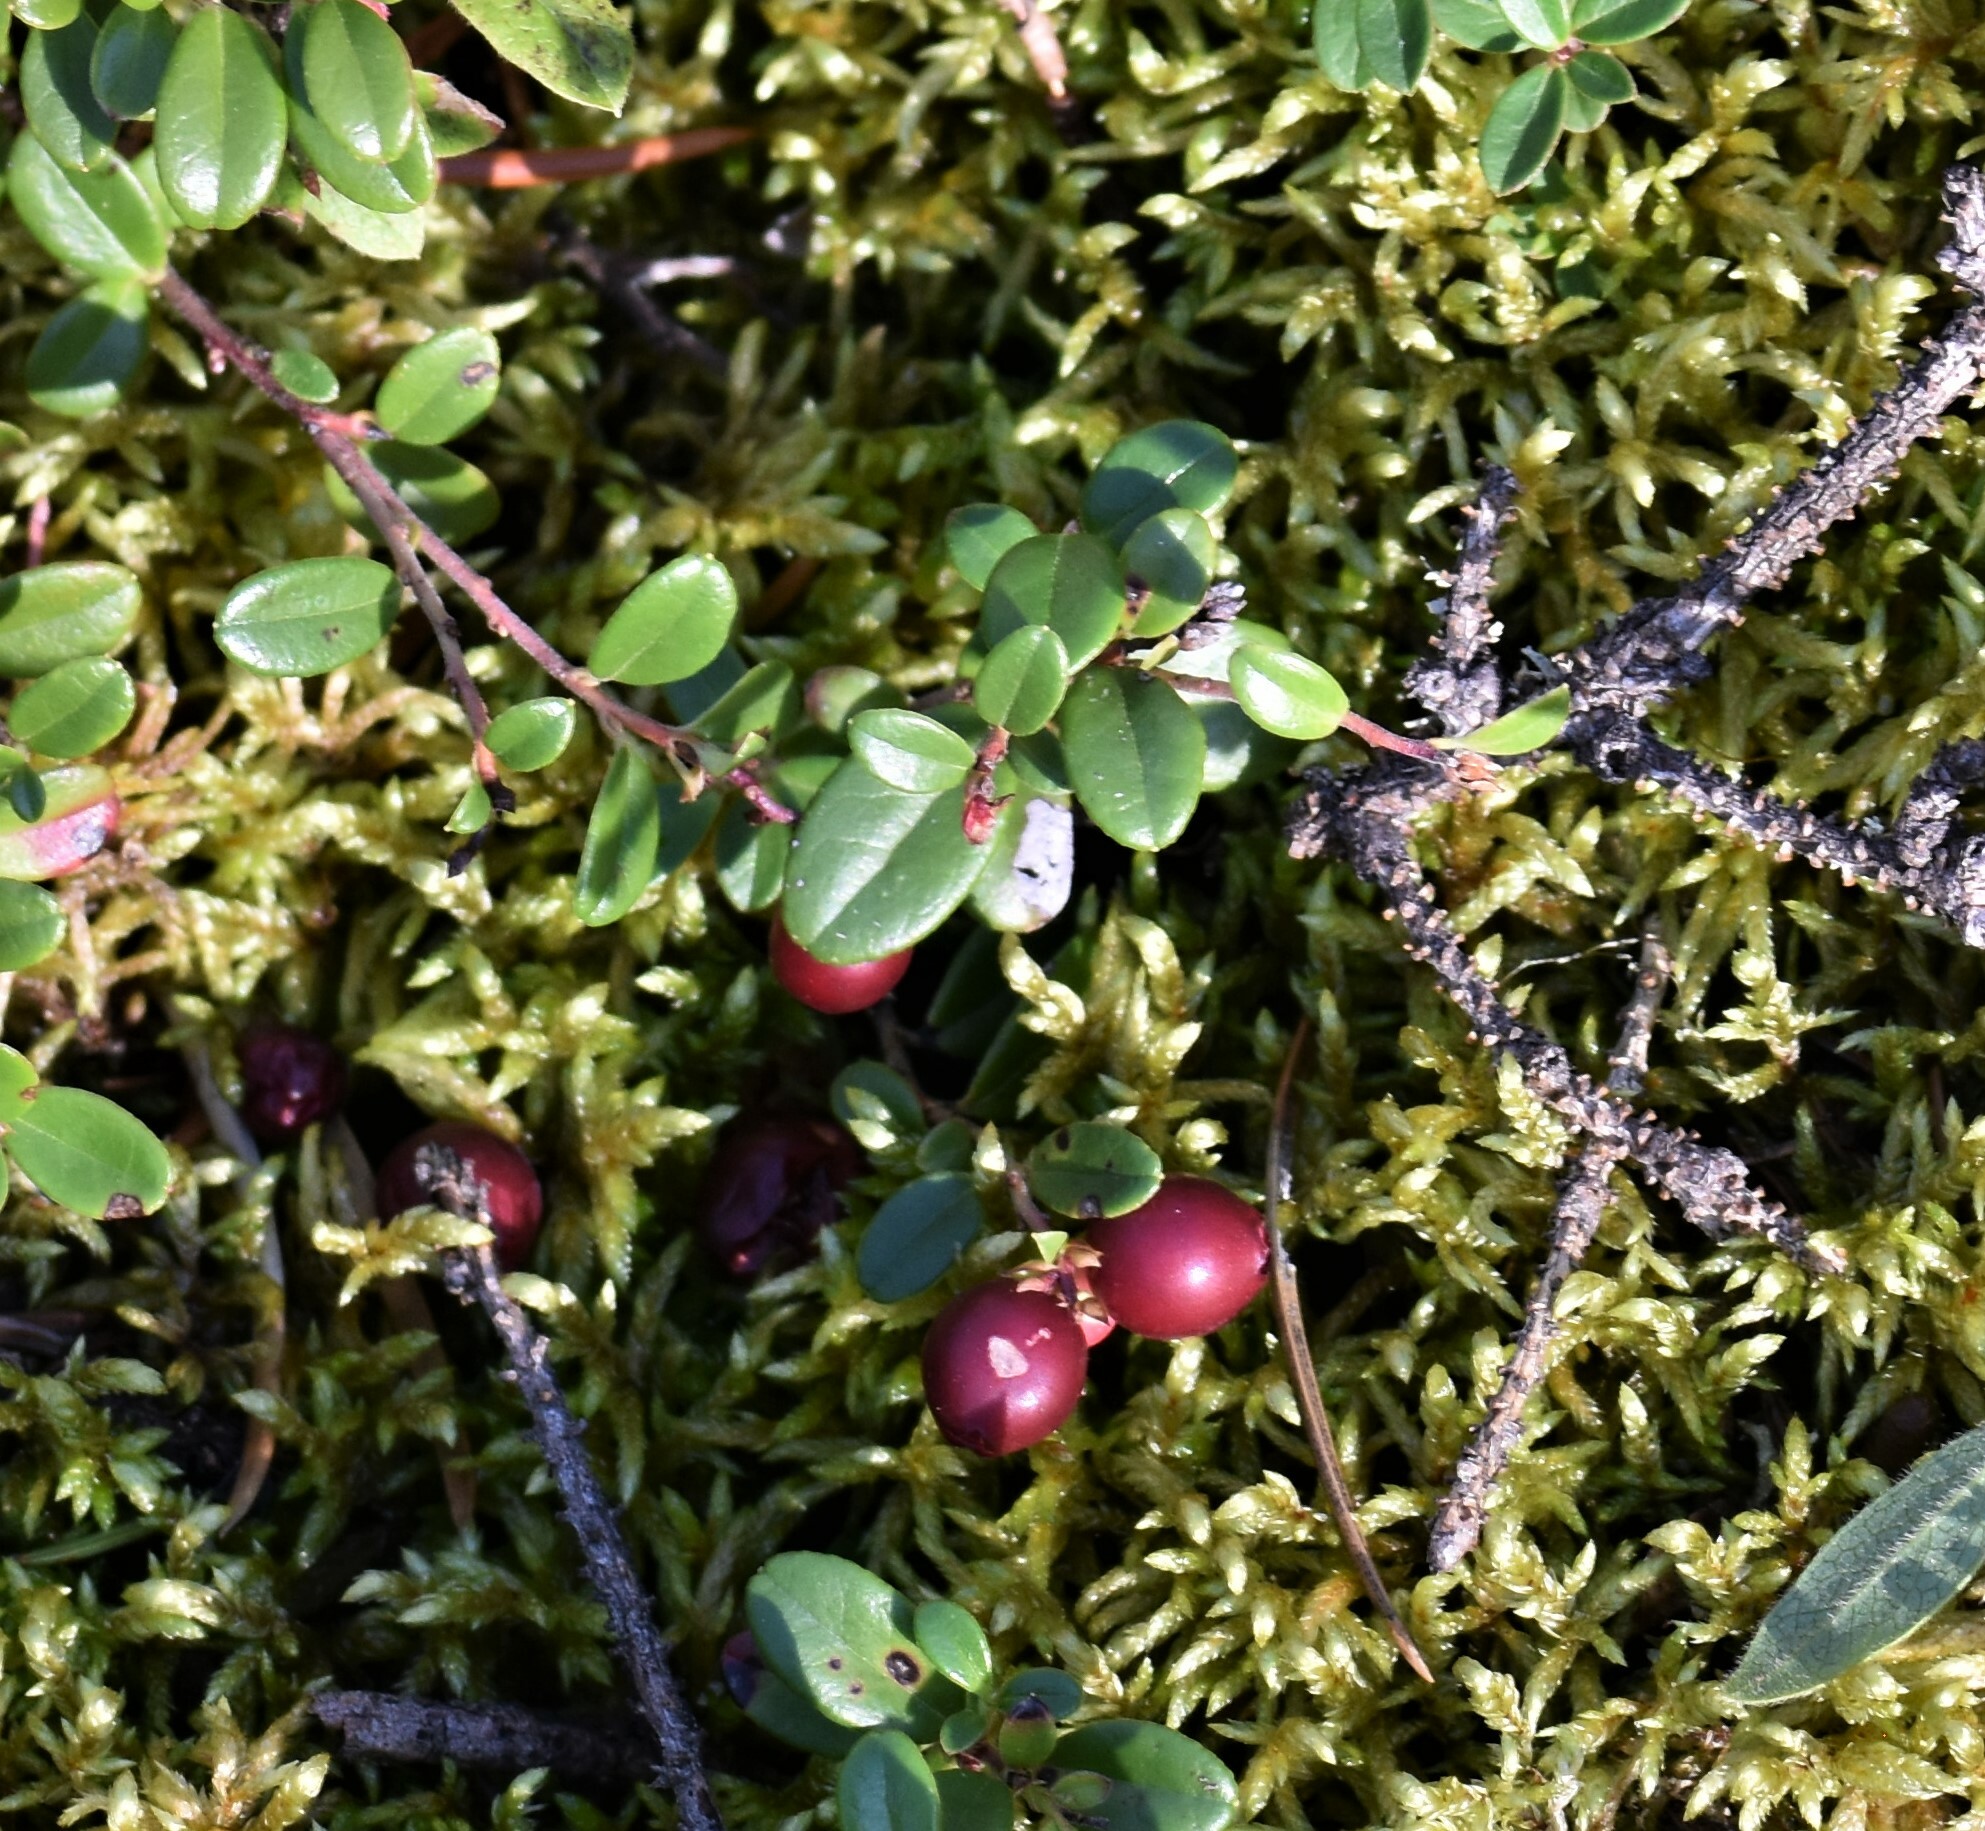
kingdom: Plantae
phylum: Tracheophyta
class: Magnoliopsida
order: Ericales
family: Ericaceae
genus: Vaccinium
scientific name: Vaccinium vitis-idaea
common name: Cowberry
